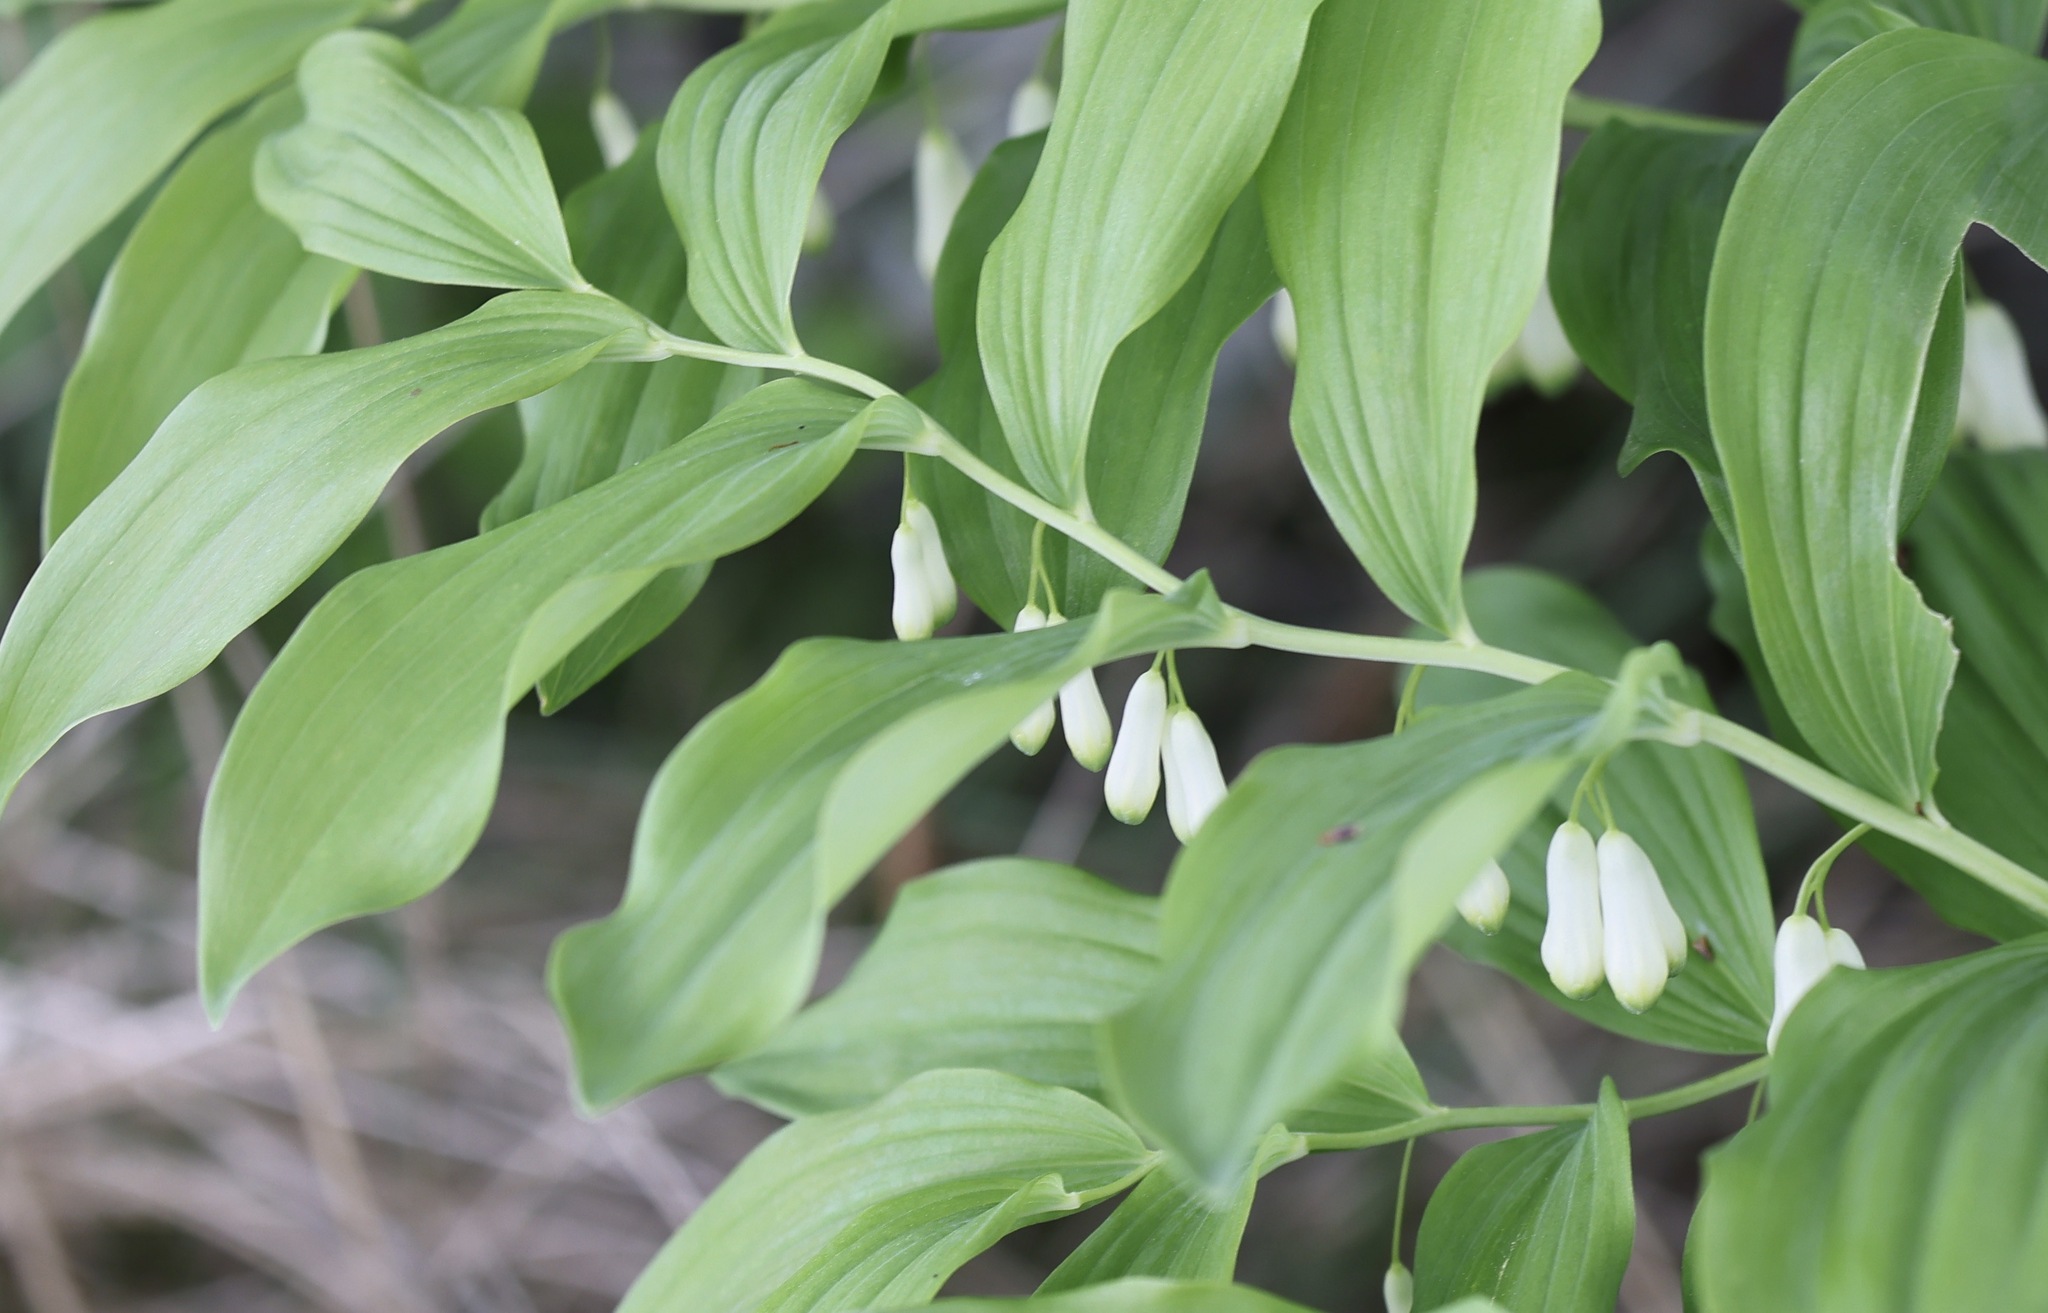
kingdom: Plantae
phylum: Tracheophyta
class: Liliopsida
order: Asparagales
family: Asparagaceae
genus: Polygonatum
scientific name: Polygonatum multiflorum
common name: Solomon's-seal
